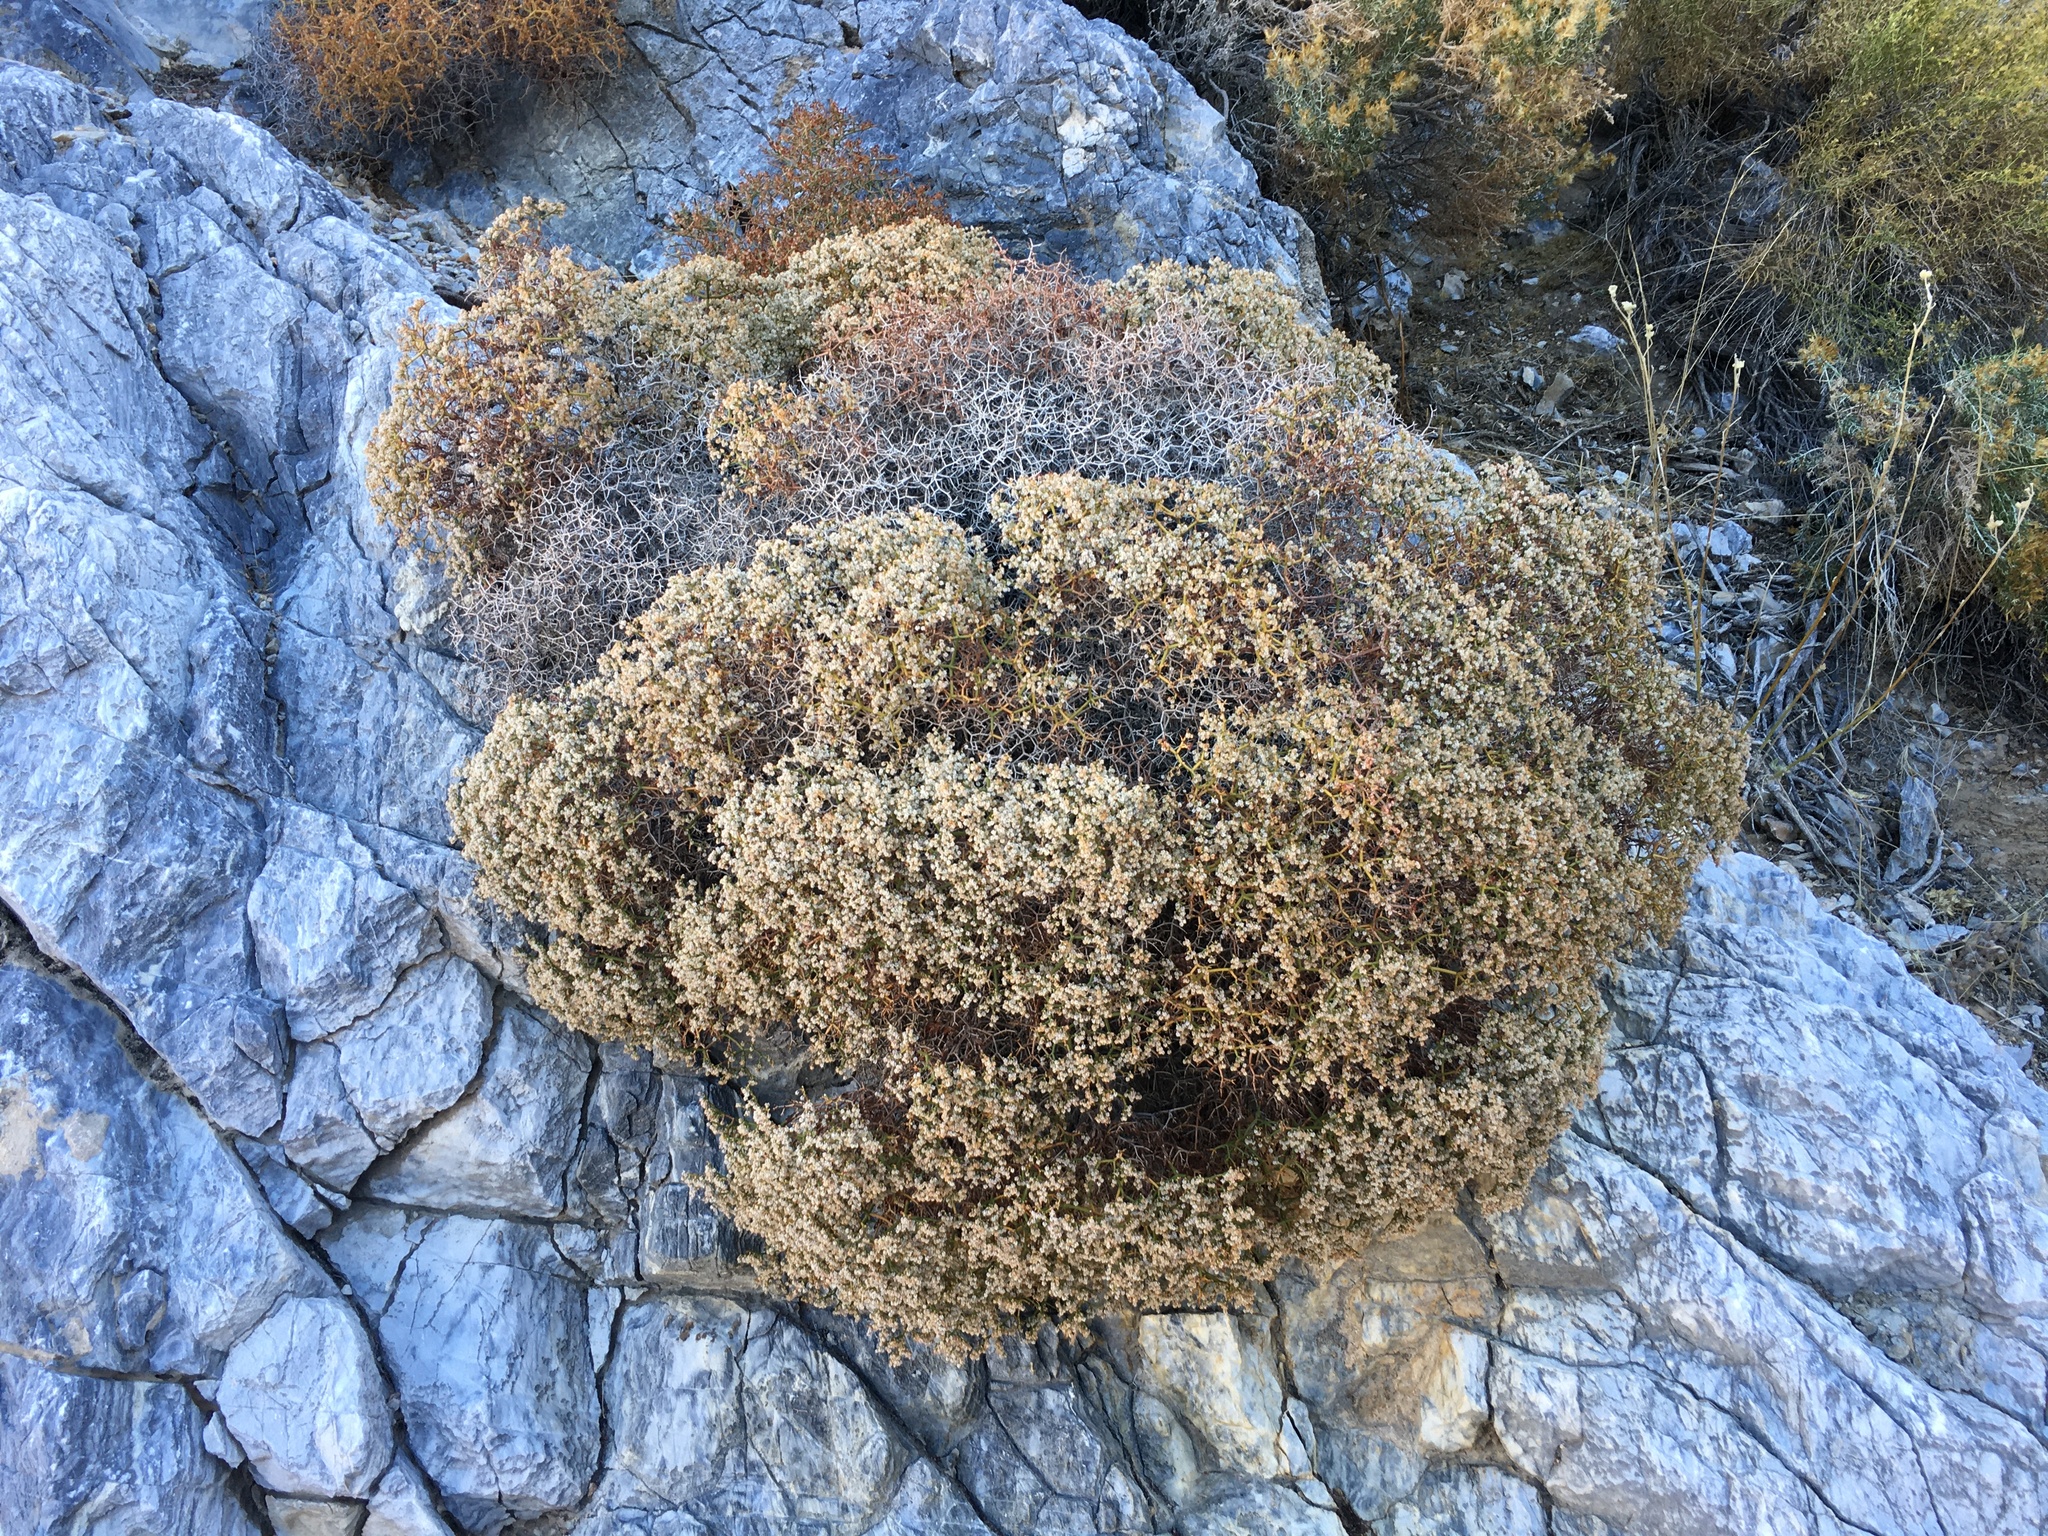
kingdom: Plantae
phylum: Tracheophyta
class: Magnoliopsida
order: Caryophyllales
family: Polygonaceae
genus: Eriogonum
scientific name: Eriogonum heermannii
